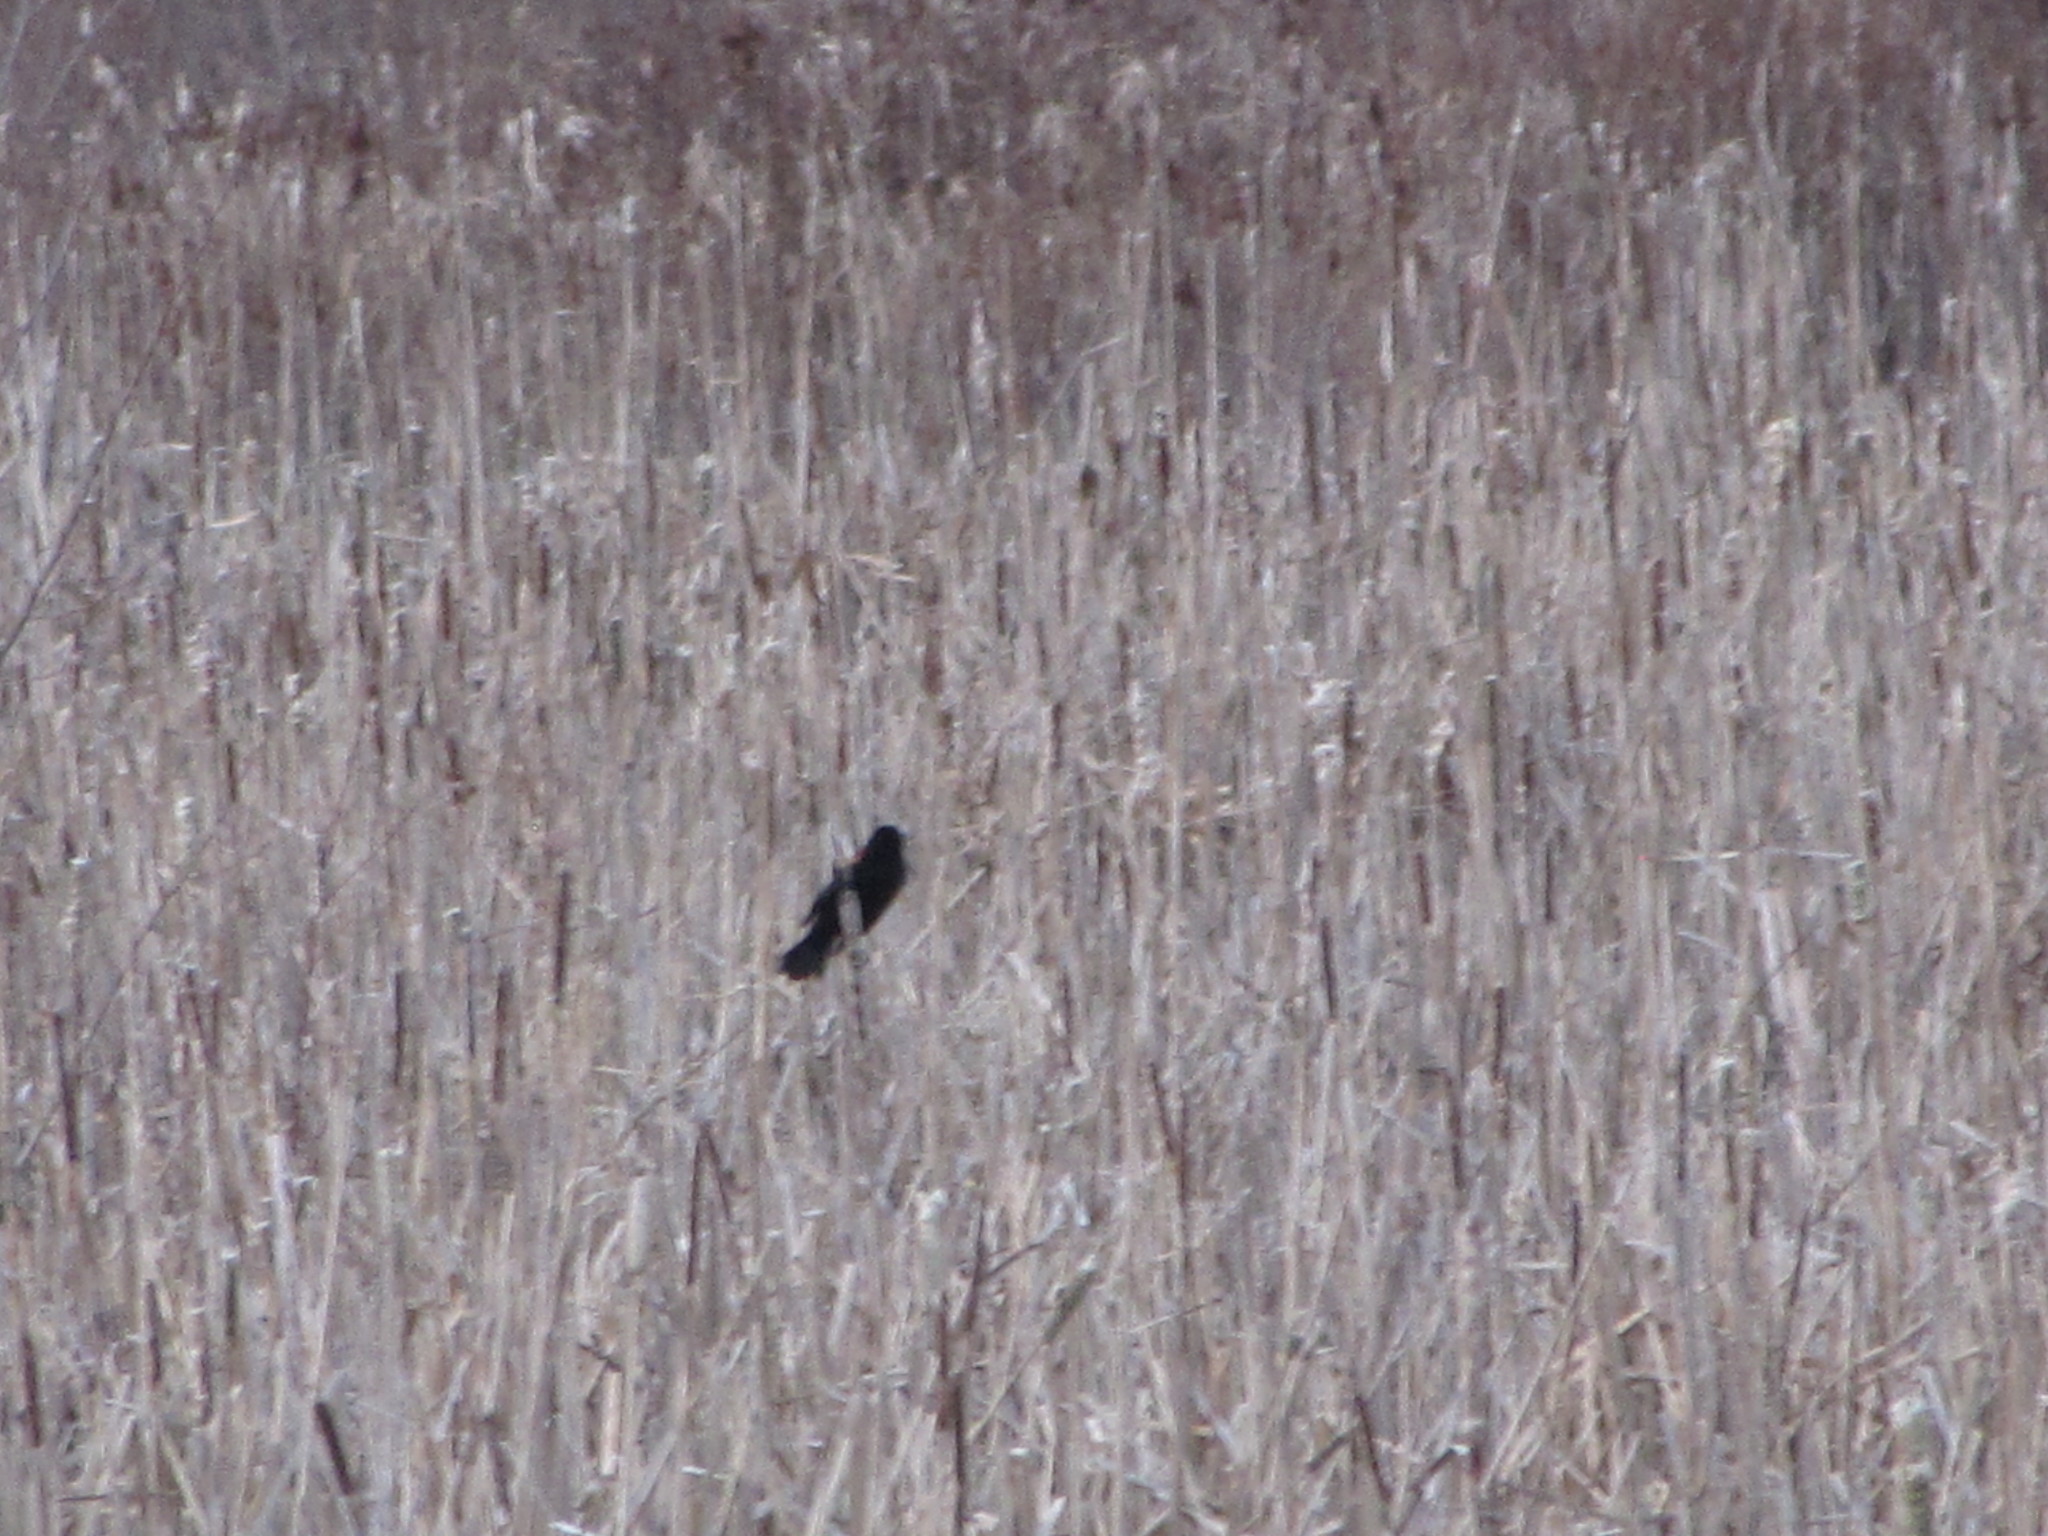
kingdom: Animalia
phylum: Chordata
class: Aves
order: Passeriformes
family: Icteridae
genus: Agelaius
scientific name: Agelaius phoeniceus
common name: Red-winged blackbird
